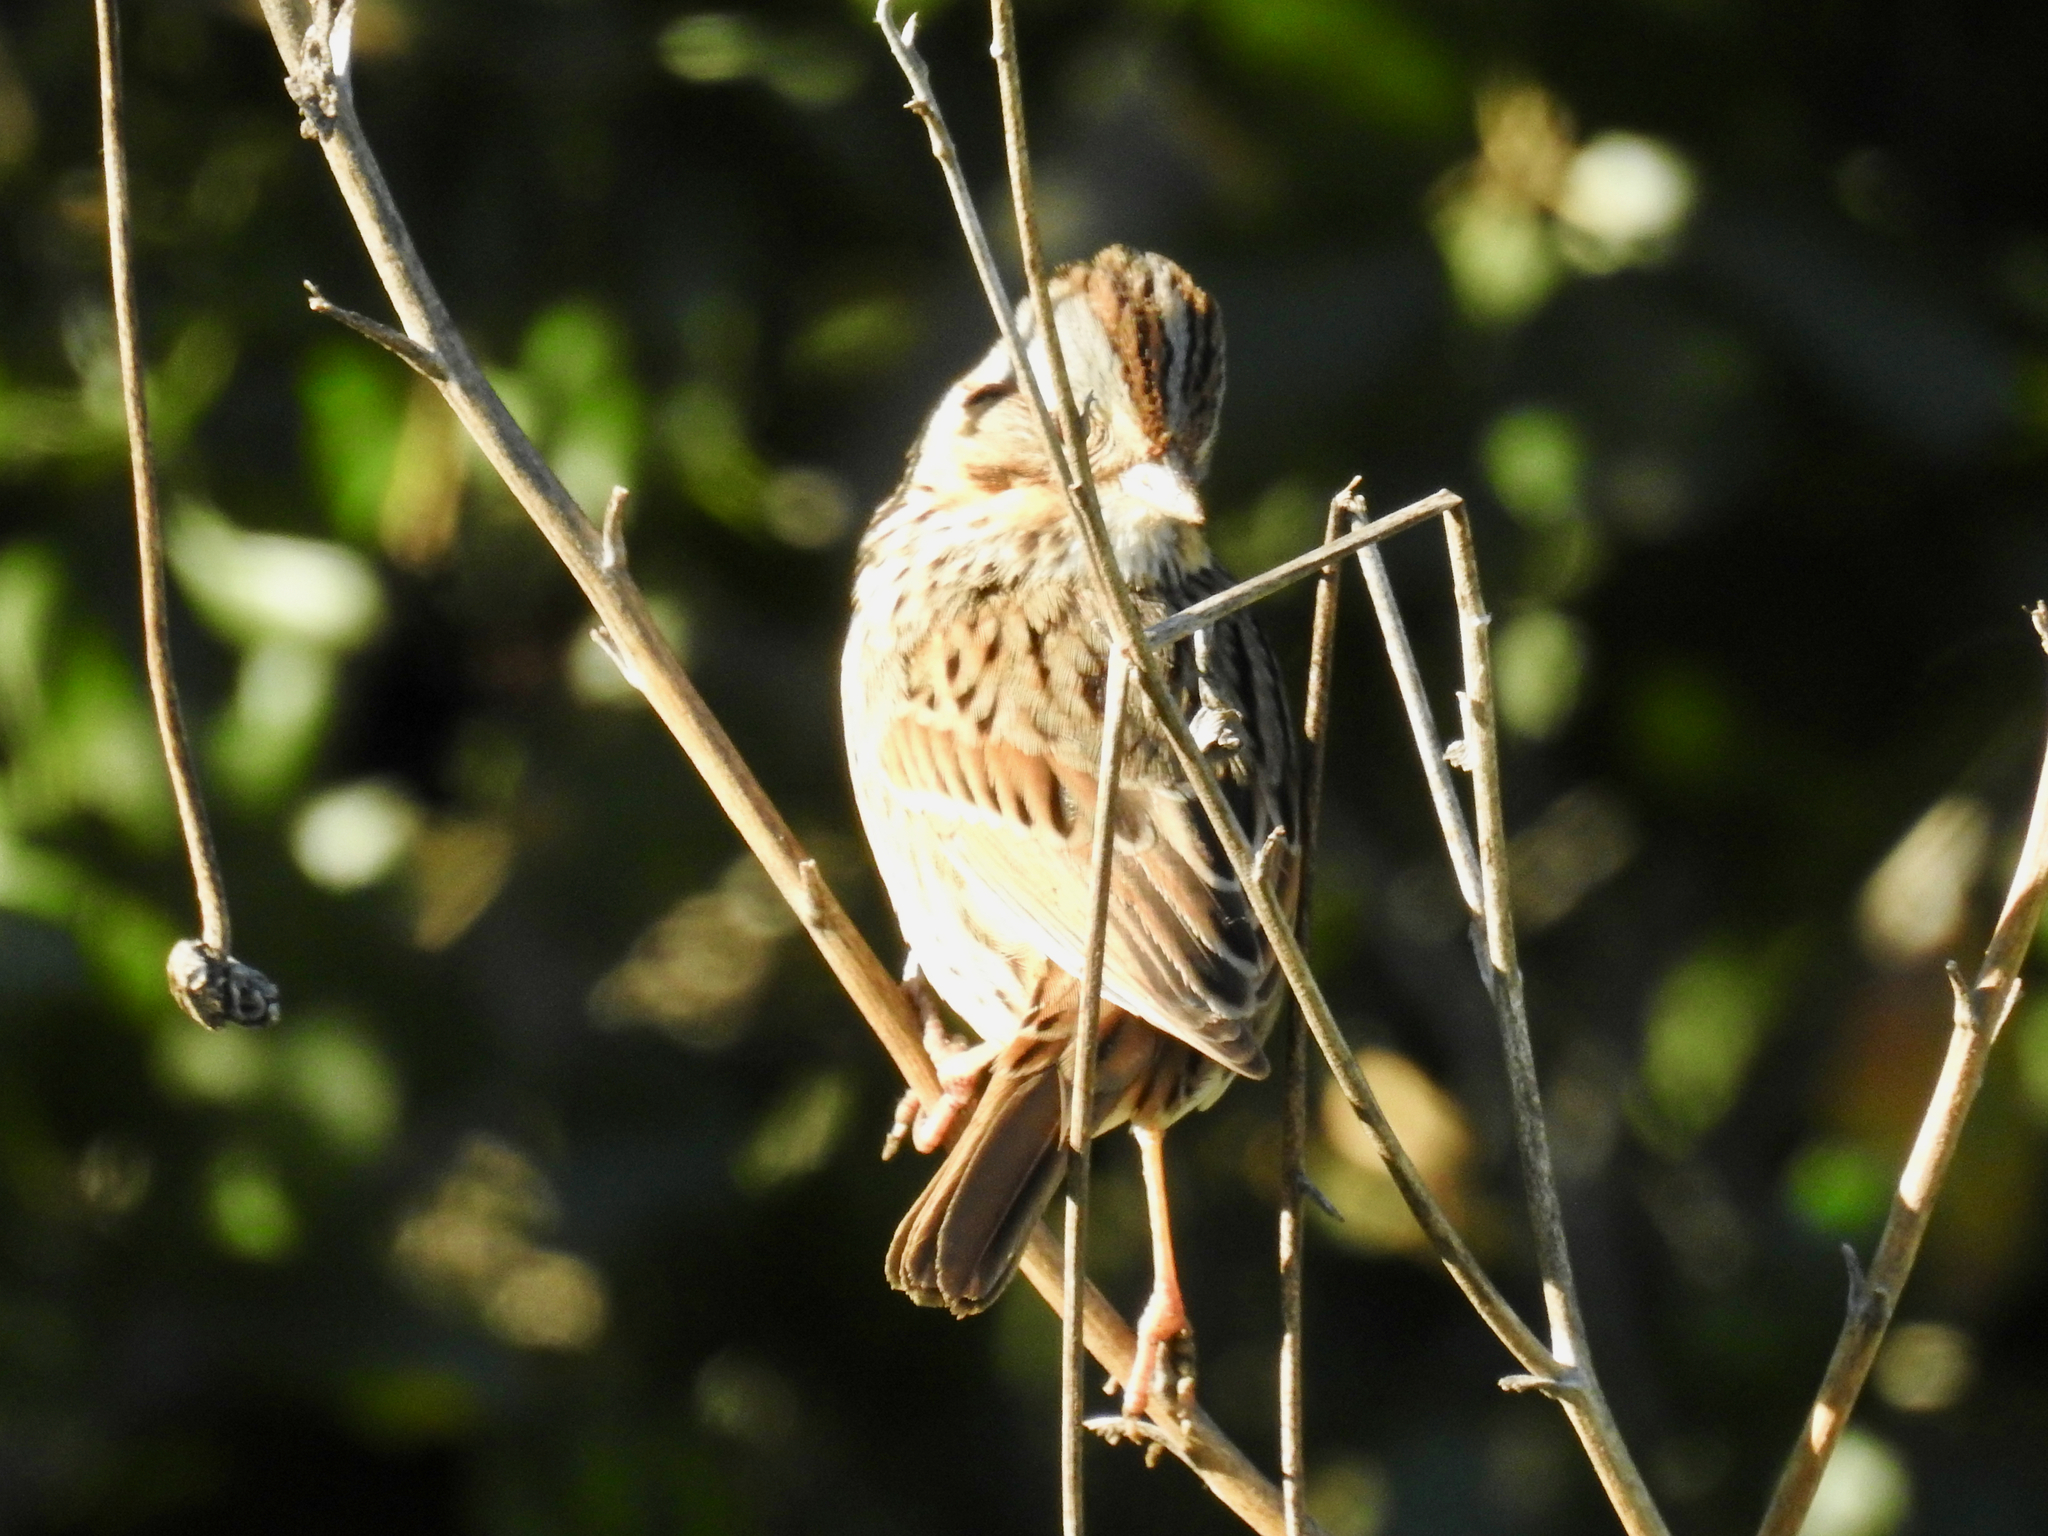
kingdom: Animalia
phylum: Chordata
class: Aves
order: Passeriformes
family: Passerellidae
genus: Melospiza
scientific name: Melospiza lincolnii
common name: Lincoln's sparrow
